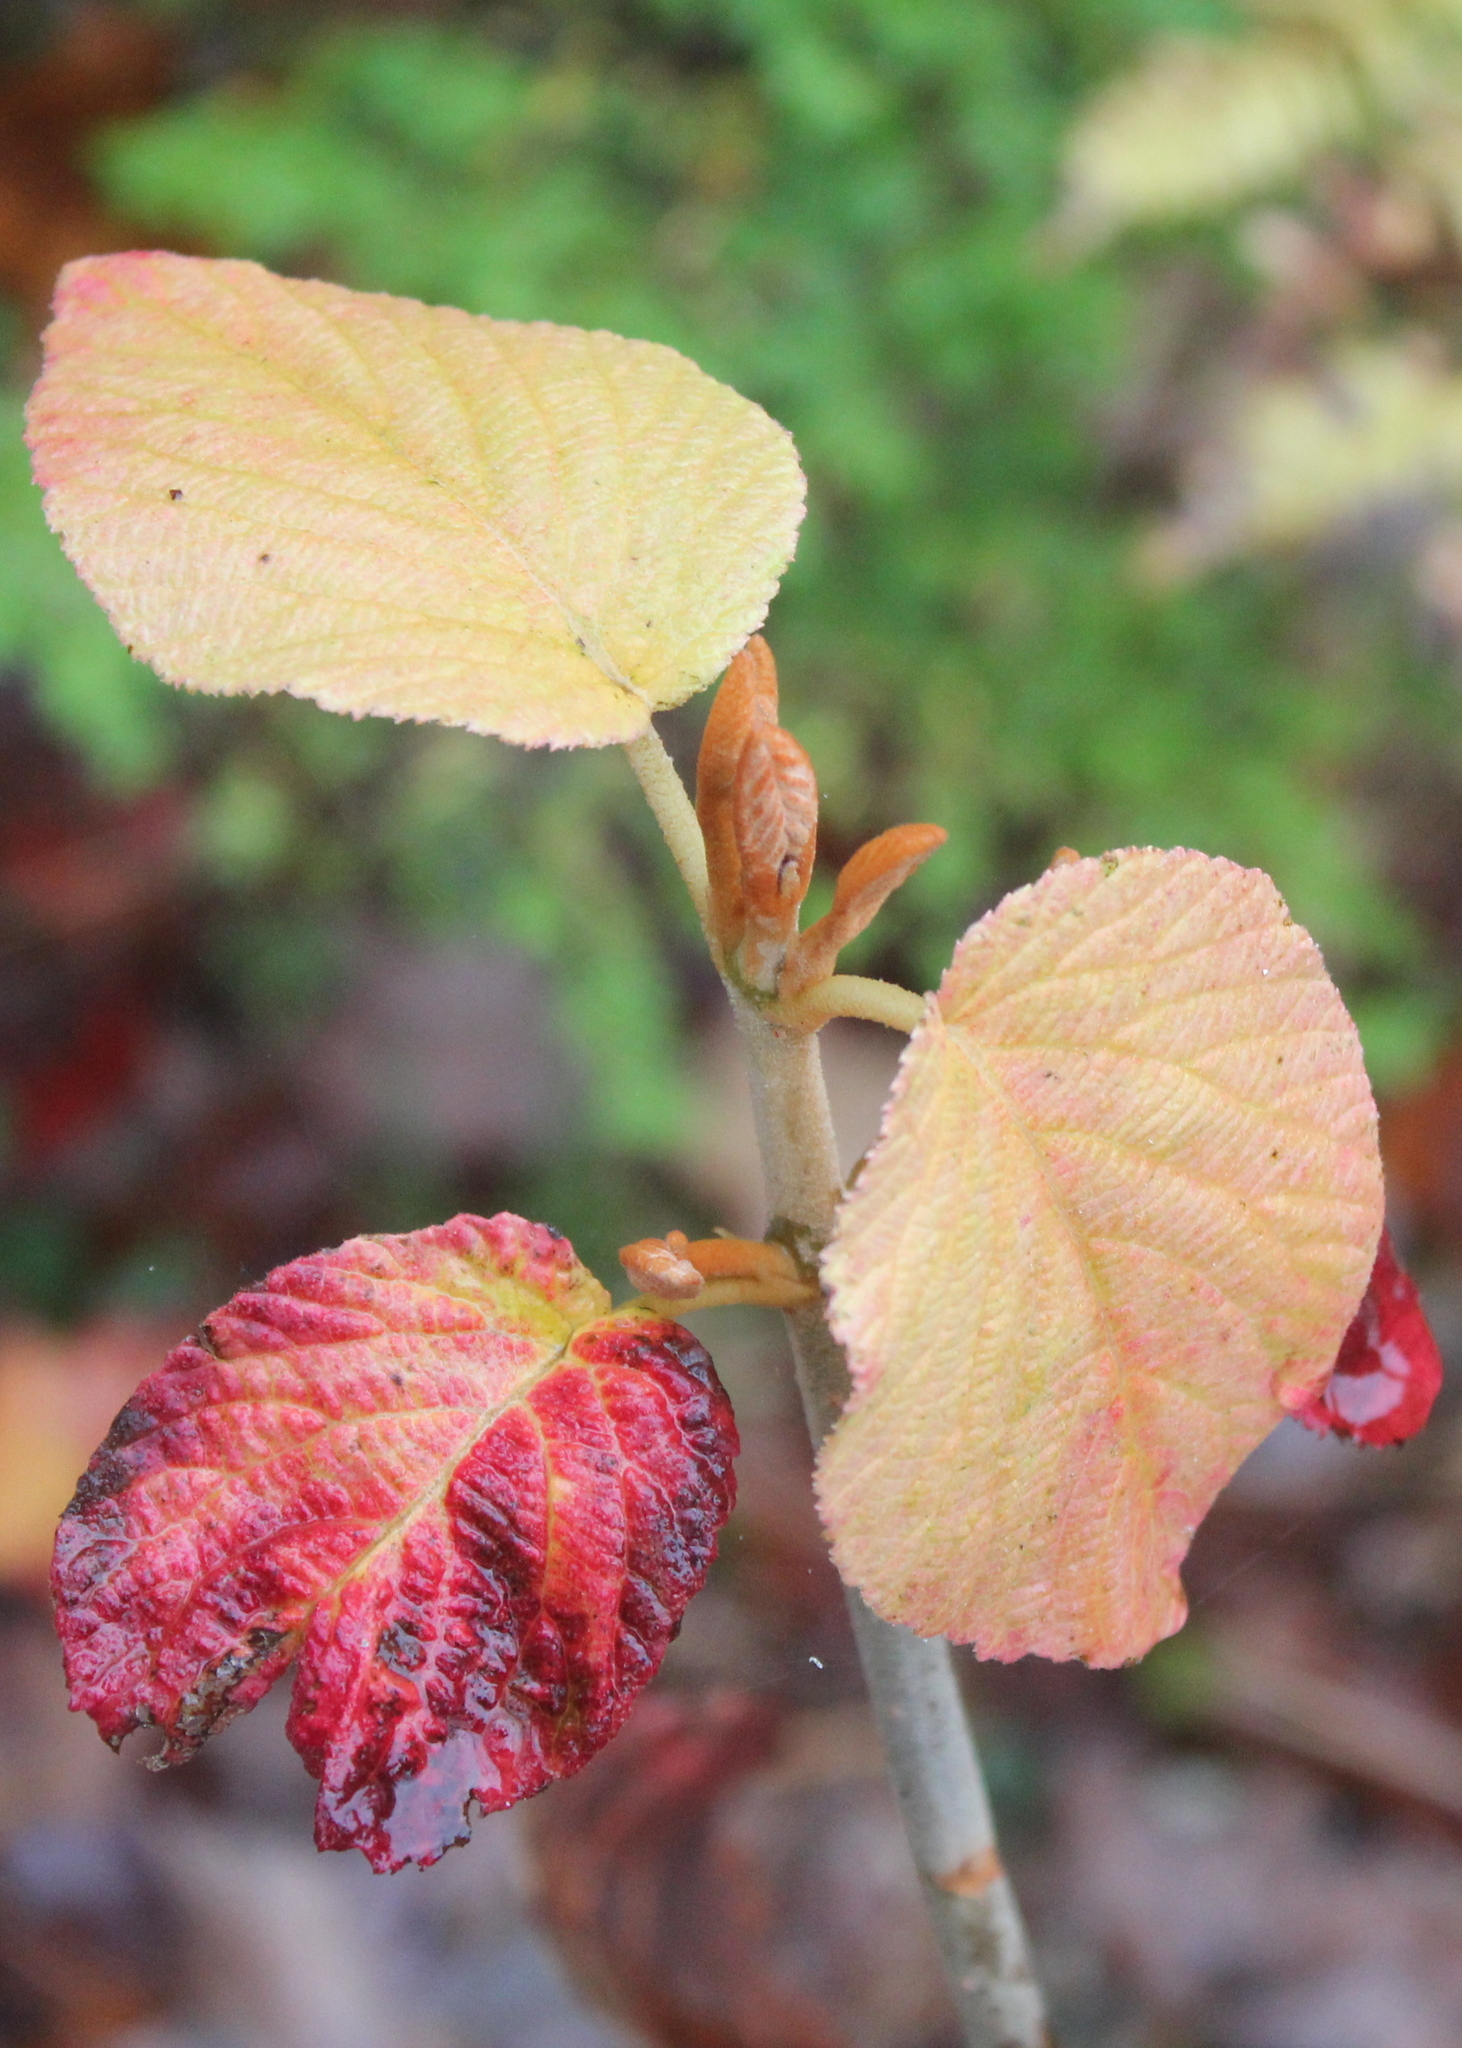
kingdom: Plantae
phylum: Tracheophyta
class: Magnoliopsida
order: Dipsacales
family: Viburnaceae
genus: Viburnum
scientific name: Viburnum lantanoides
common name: Hobblebush
